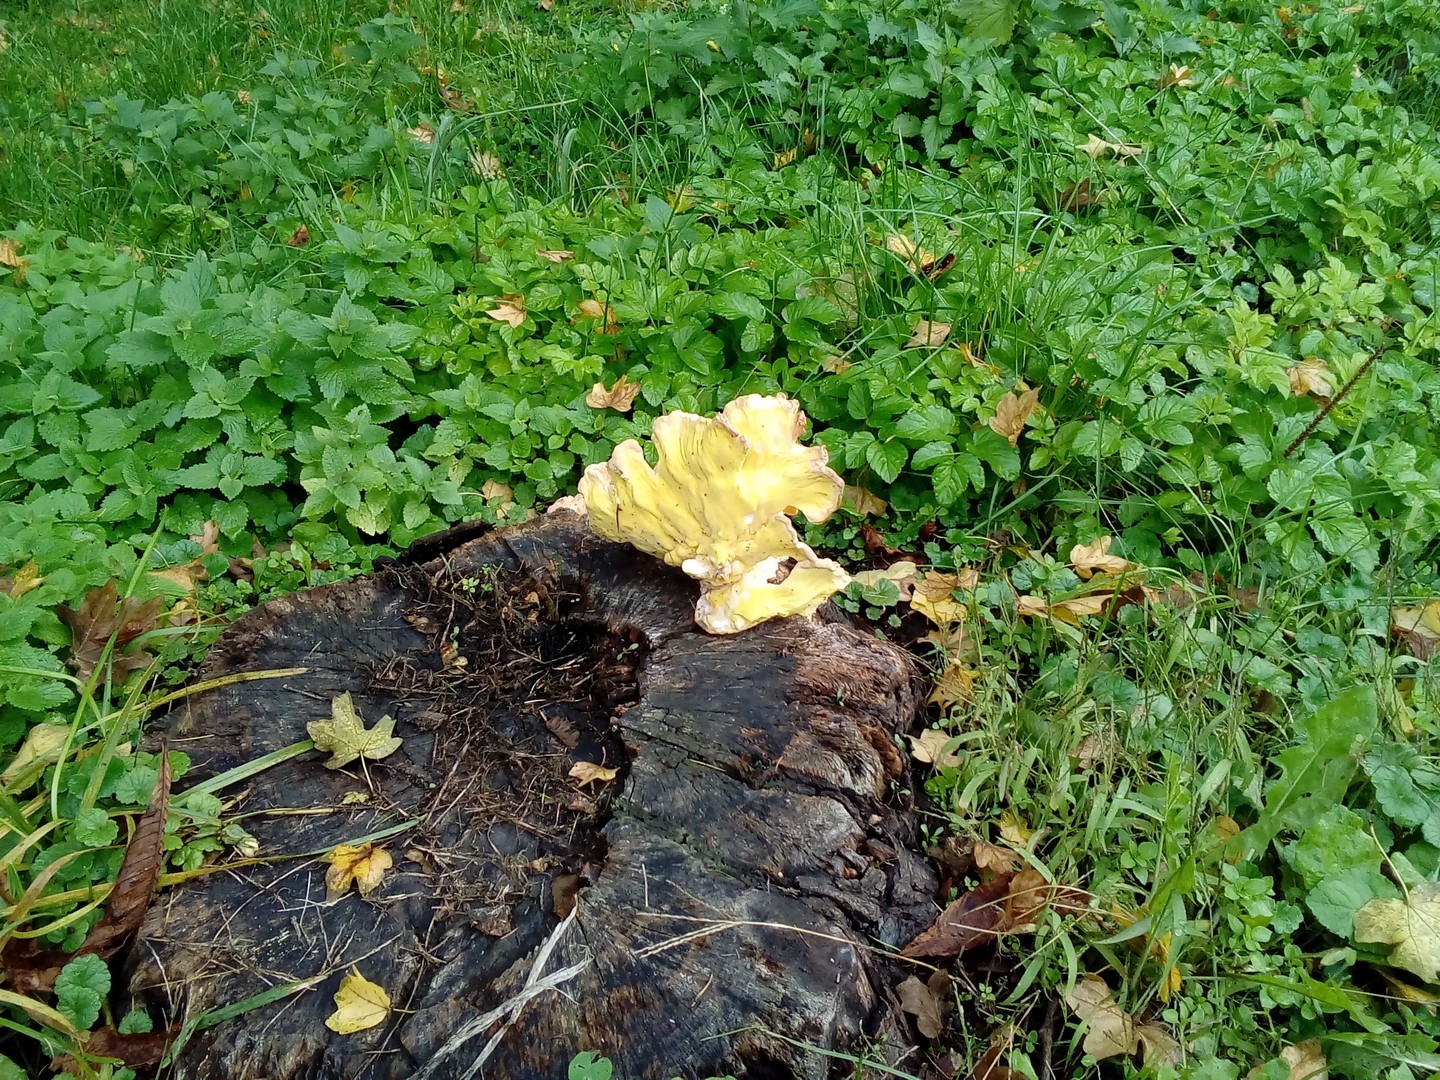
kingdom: Fungi
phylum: Basidiomycota
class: Agaricomycetes
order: Polyporales
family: Laetiporaceae
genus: Laetiporus
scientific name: Laetiporus sulphureus
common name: Chicken of the woods
